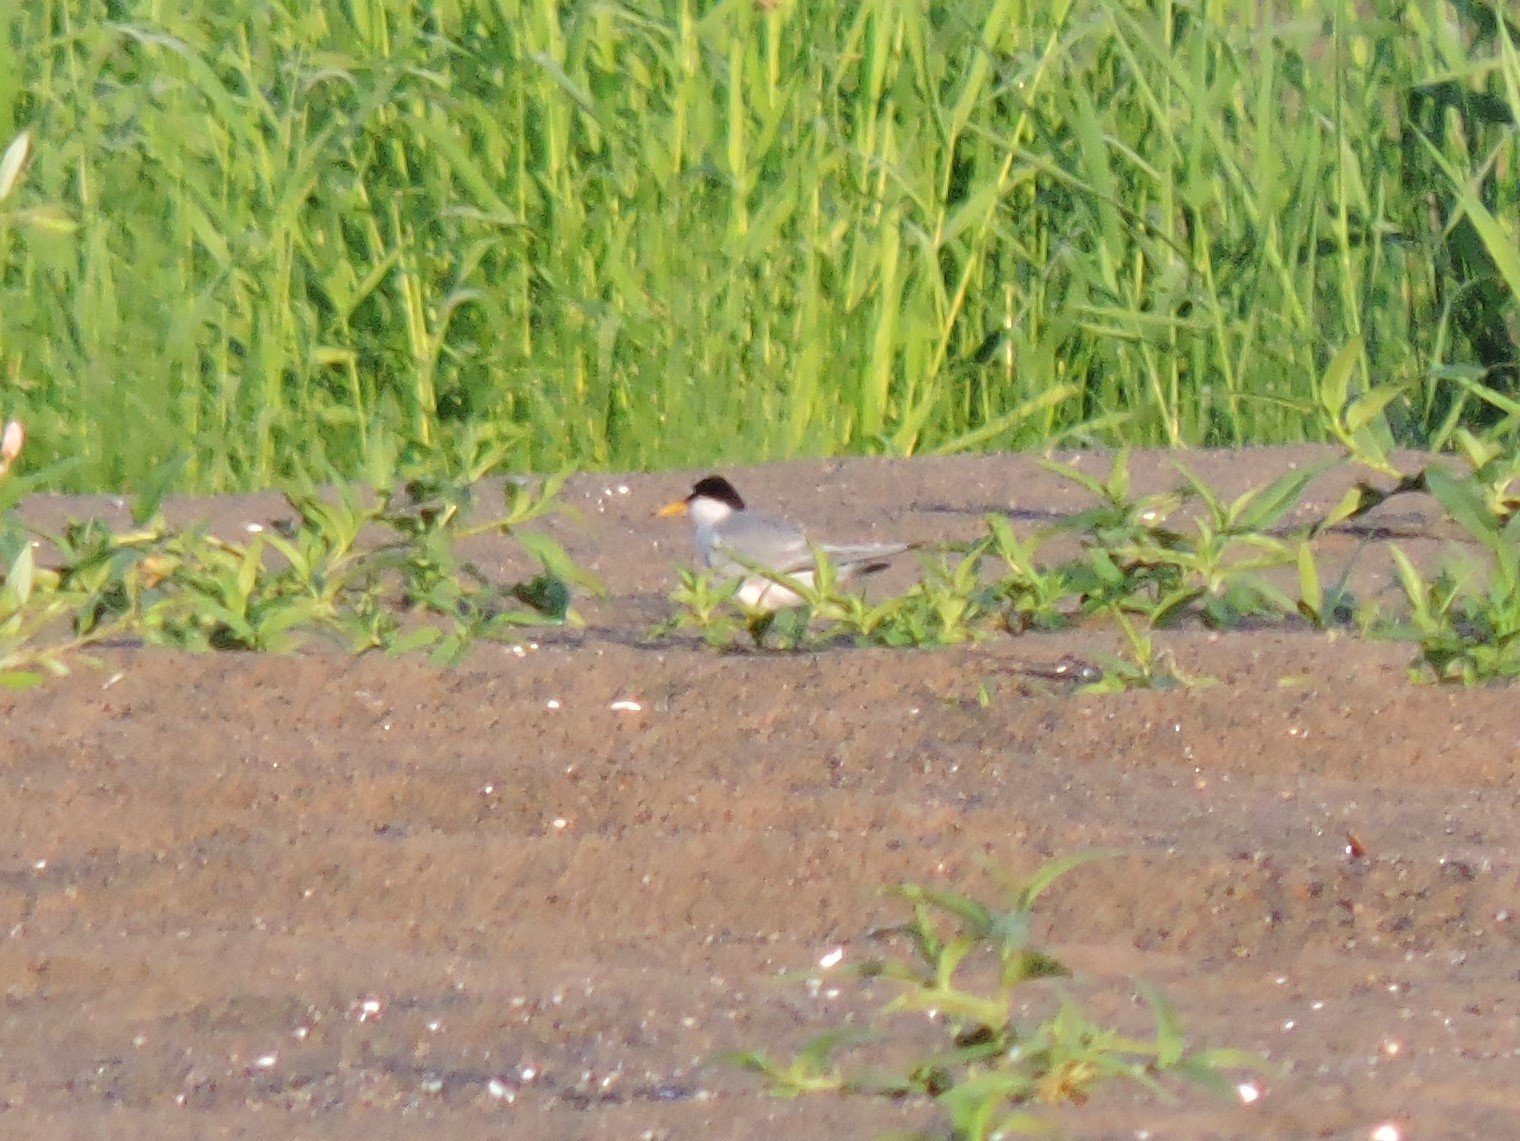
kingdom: Animalia
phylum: Chordata
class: Aves
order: Charadriiformes
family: Laridae
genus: Sternula
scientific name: Sternula albifrons
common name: Little tern
